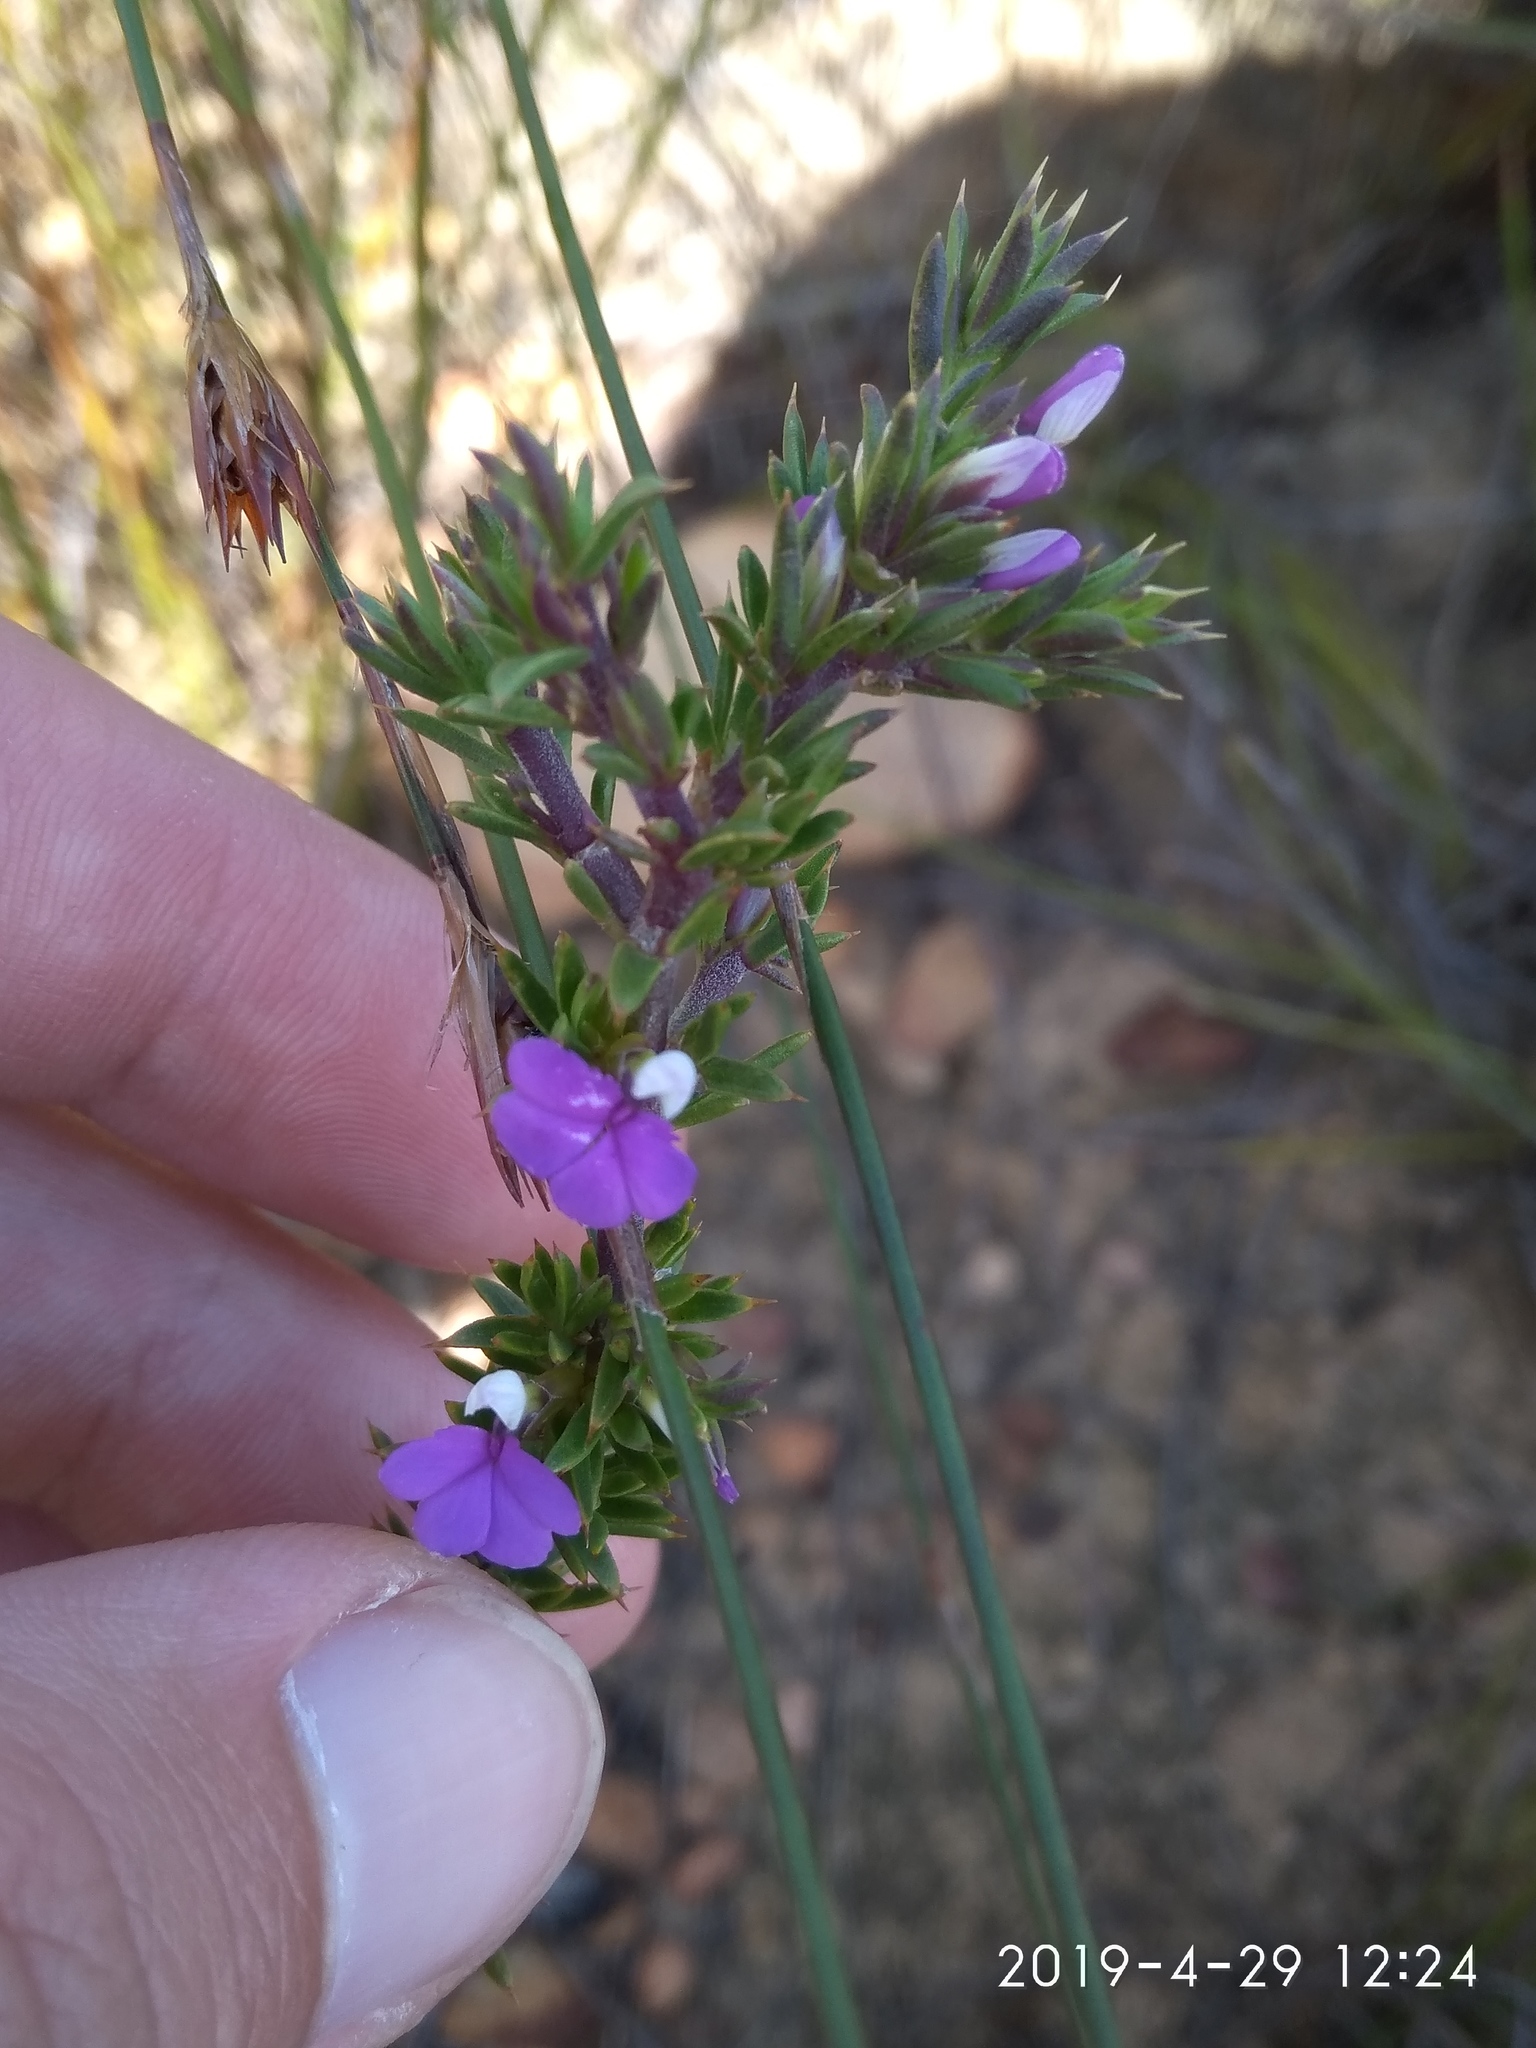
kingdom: Plantae
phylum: Tracheophyta
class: Magnoliopsida
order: Fabales
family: Polygalaceae
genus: Muraltia
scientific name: Muraltia heisteria
